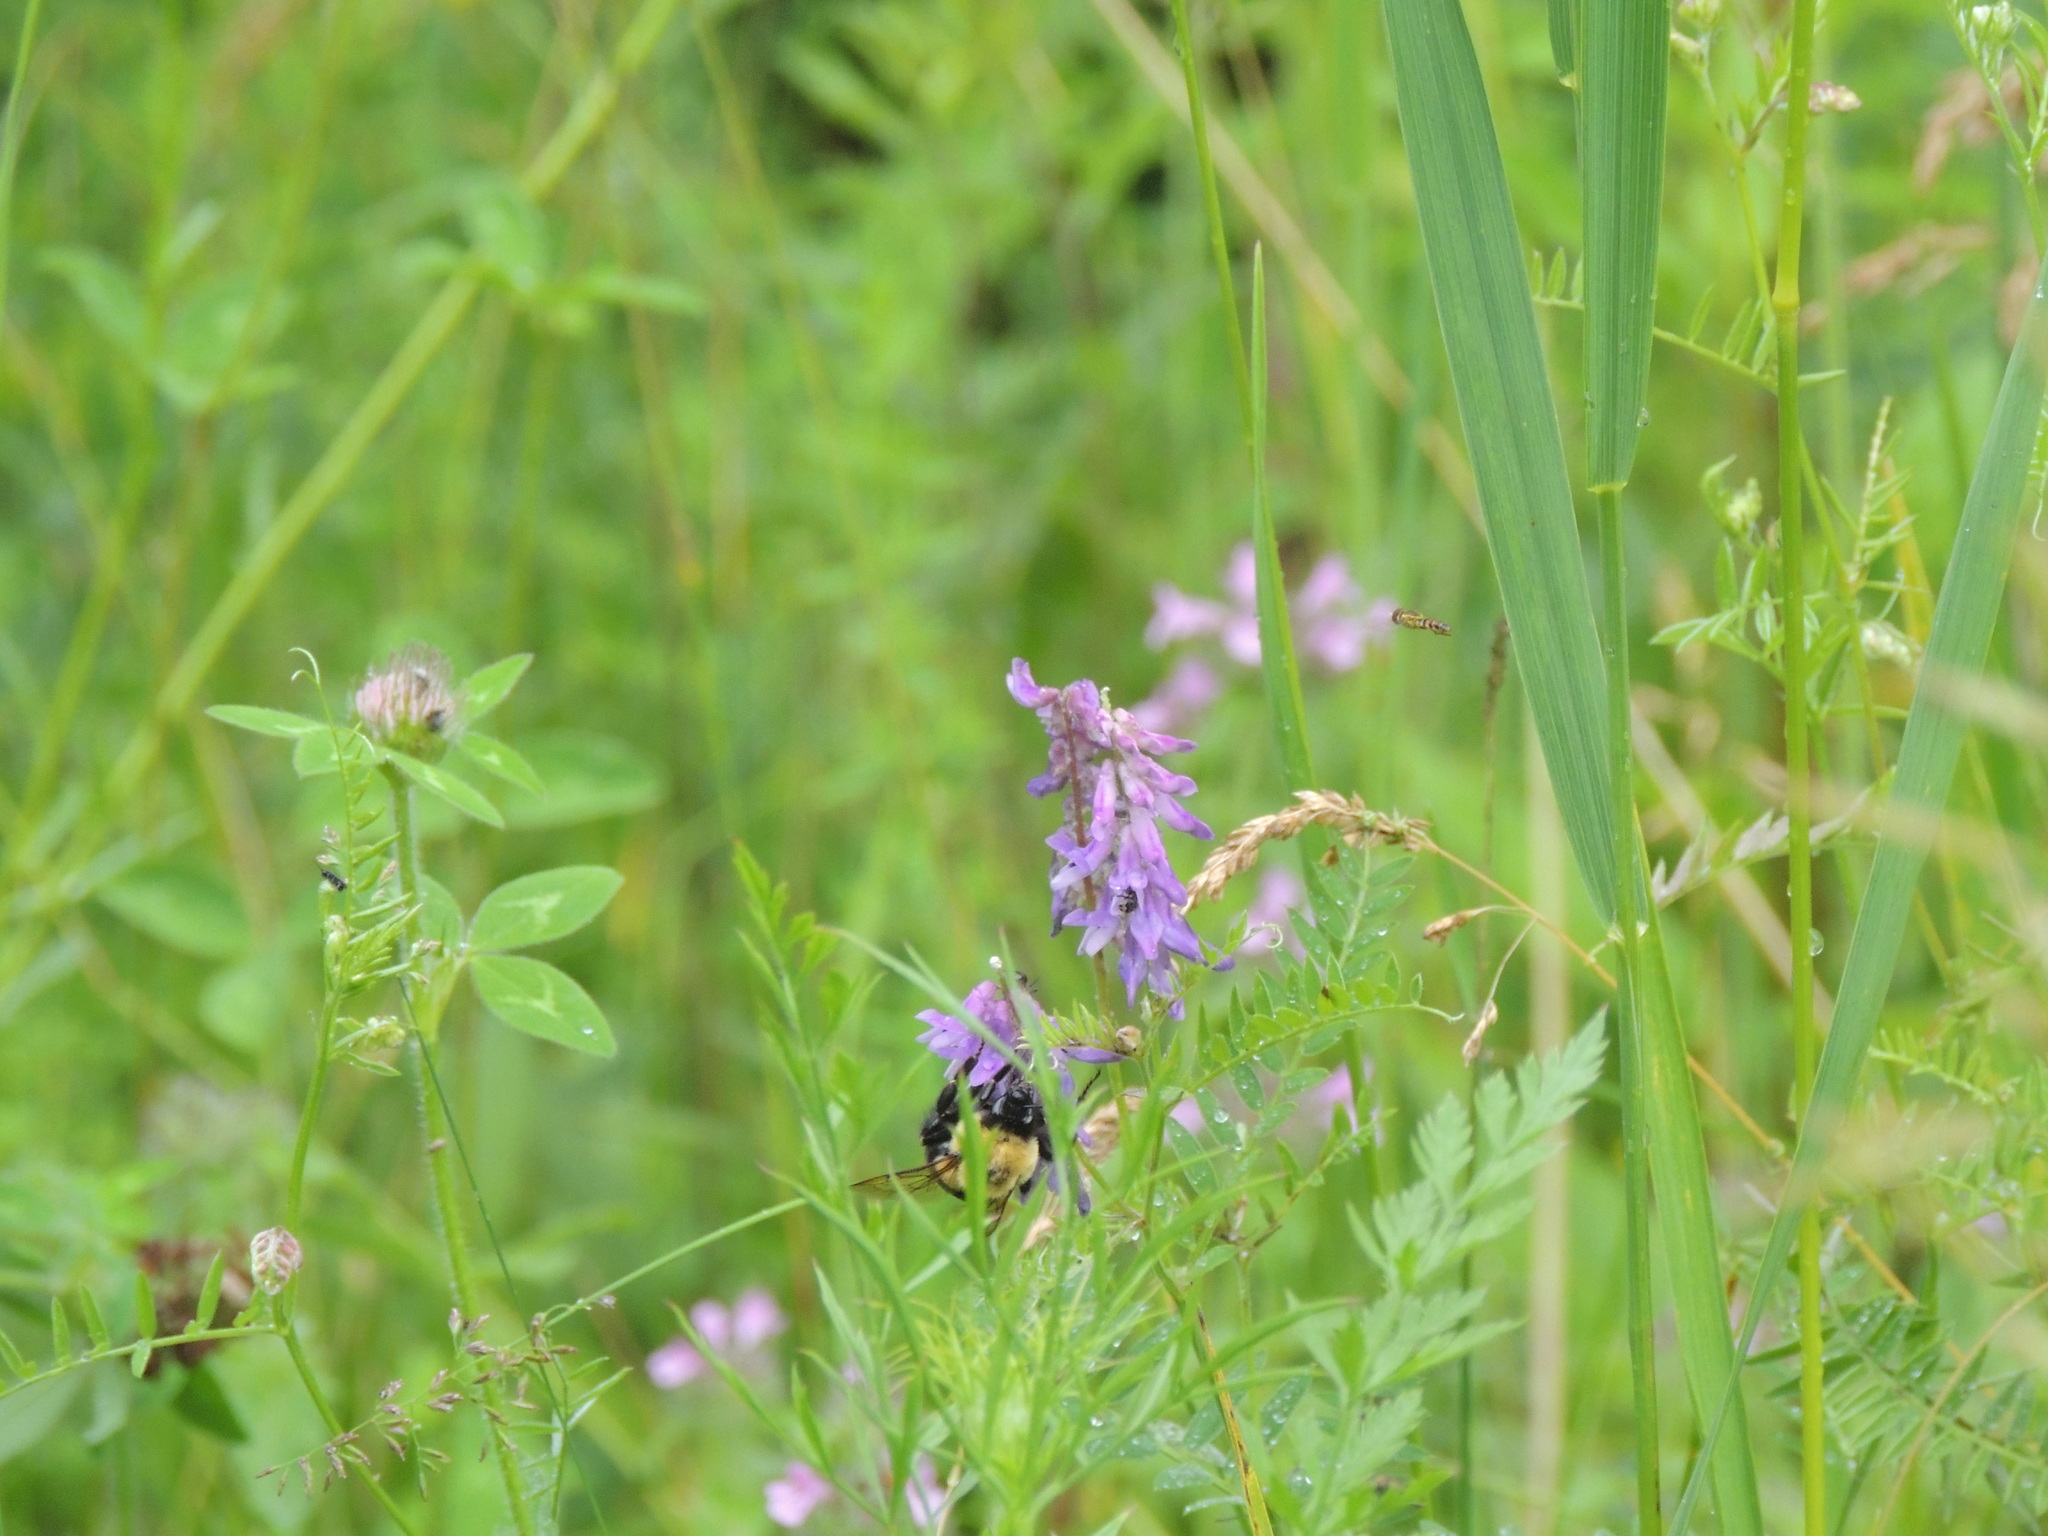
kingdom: Animalia
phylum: Arthropoda
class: Insecta
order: Hymenoptera
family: Apidae
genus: Bombus
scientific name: Bombus impatiens
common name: Common eastern bumble bee
